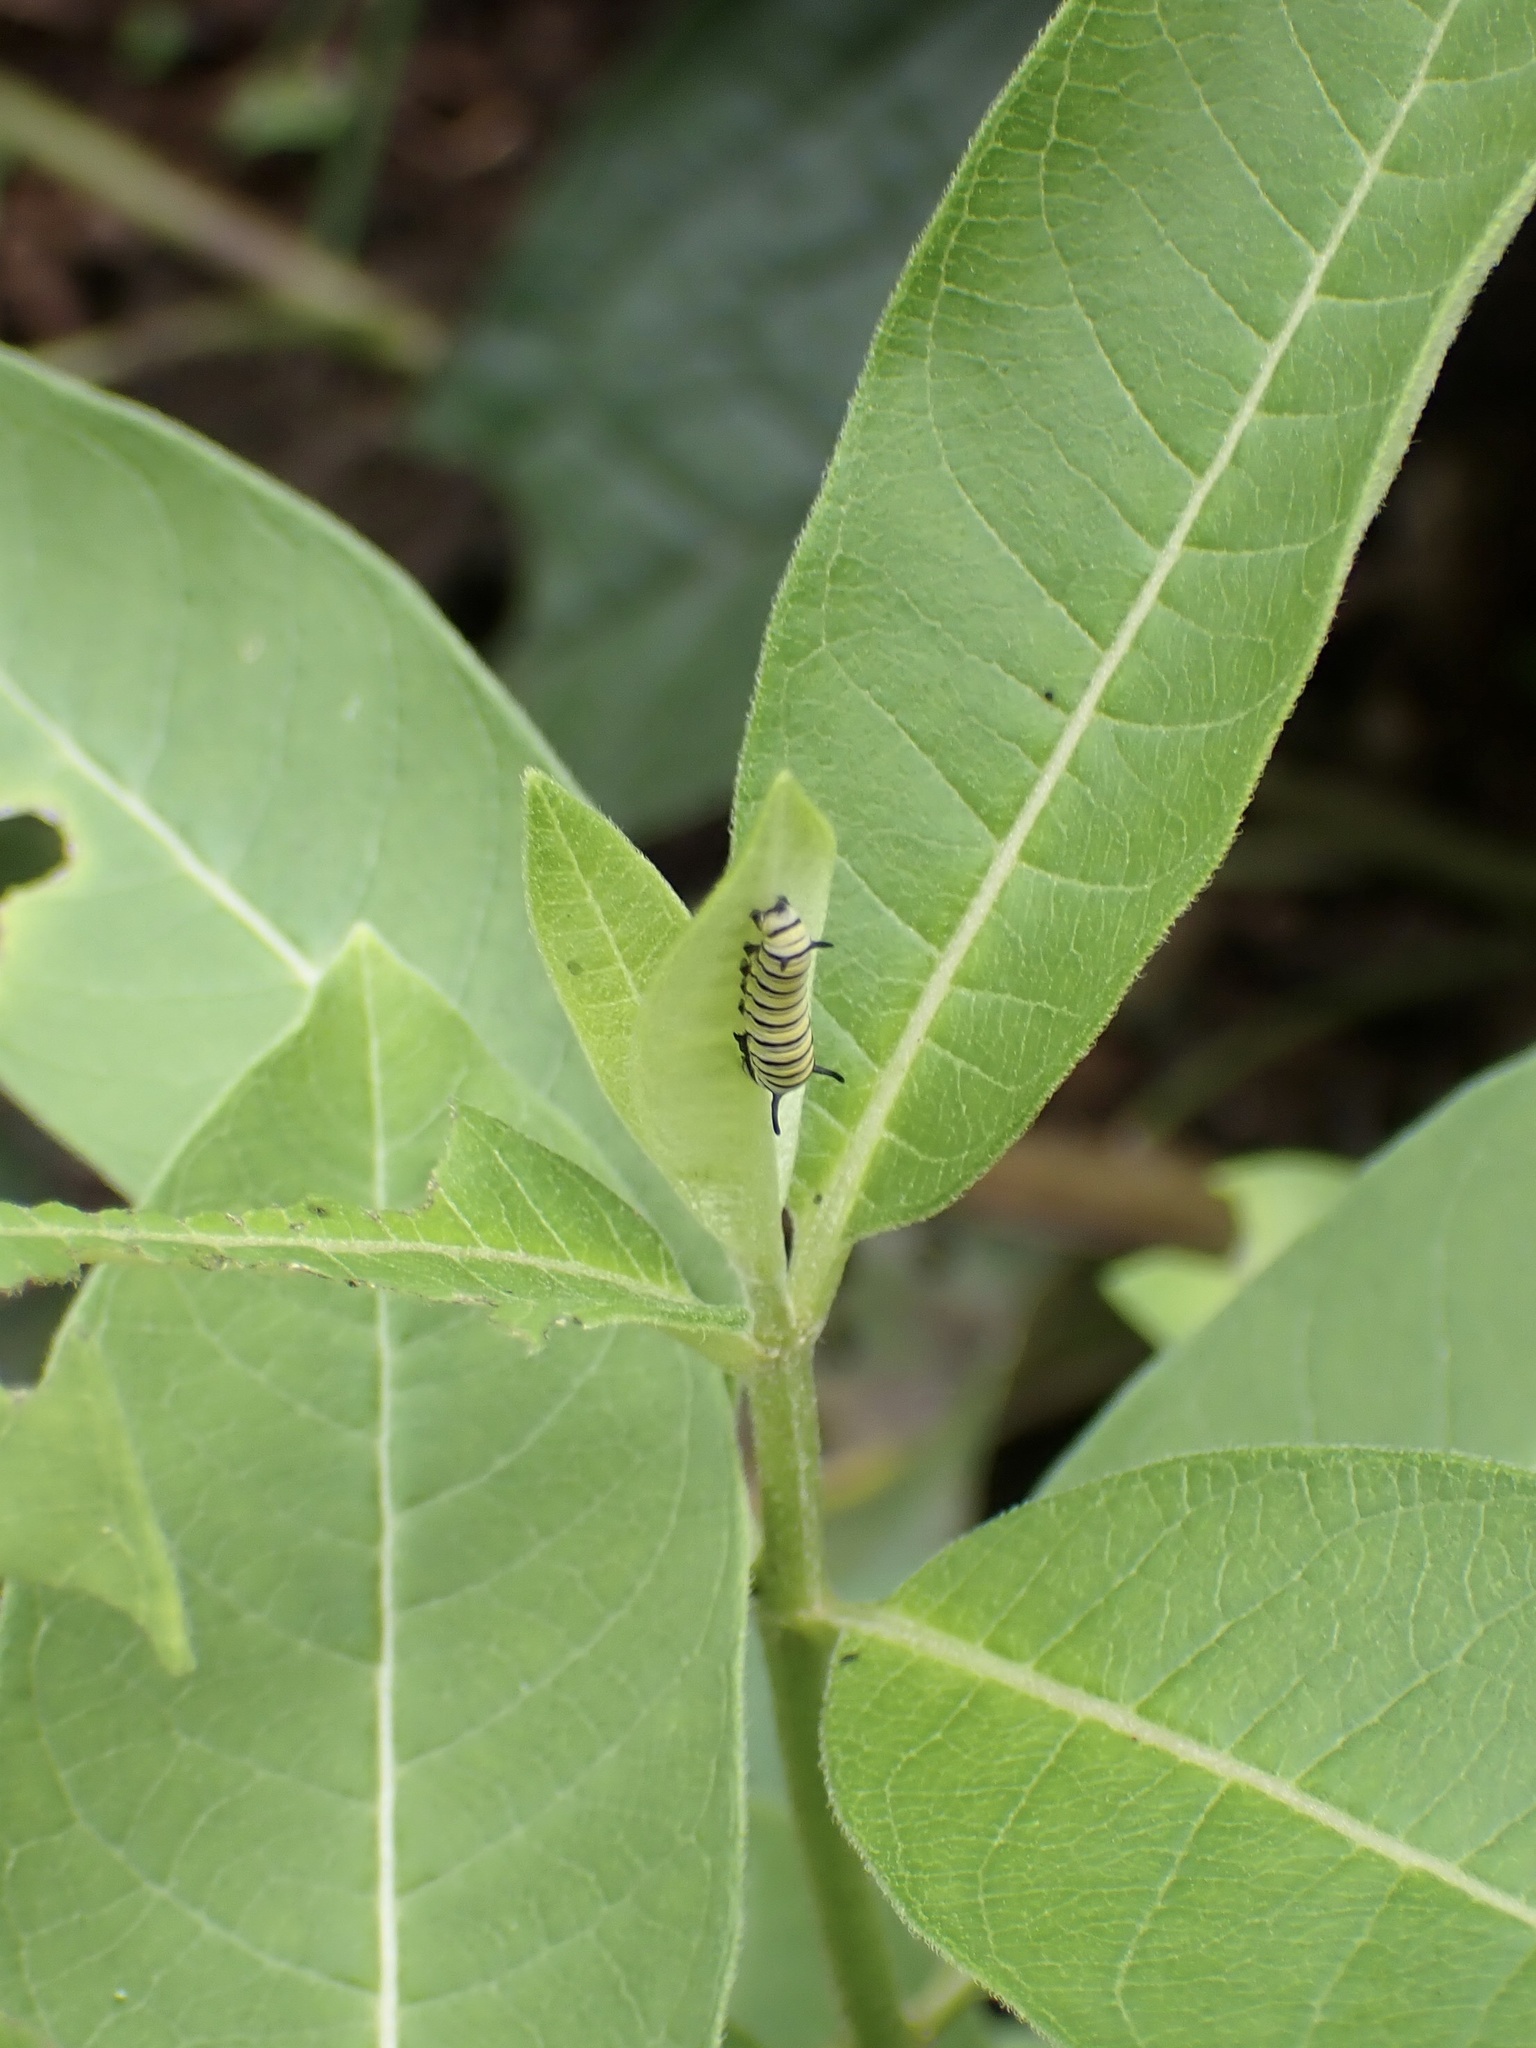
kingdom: Animalia
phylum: Arthropoda
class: Insecta
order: Lepidoptera
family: Nymphalidae
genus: Danaus
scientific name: Danaus plexippus
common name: Monarch
